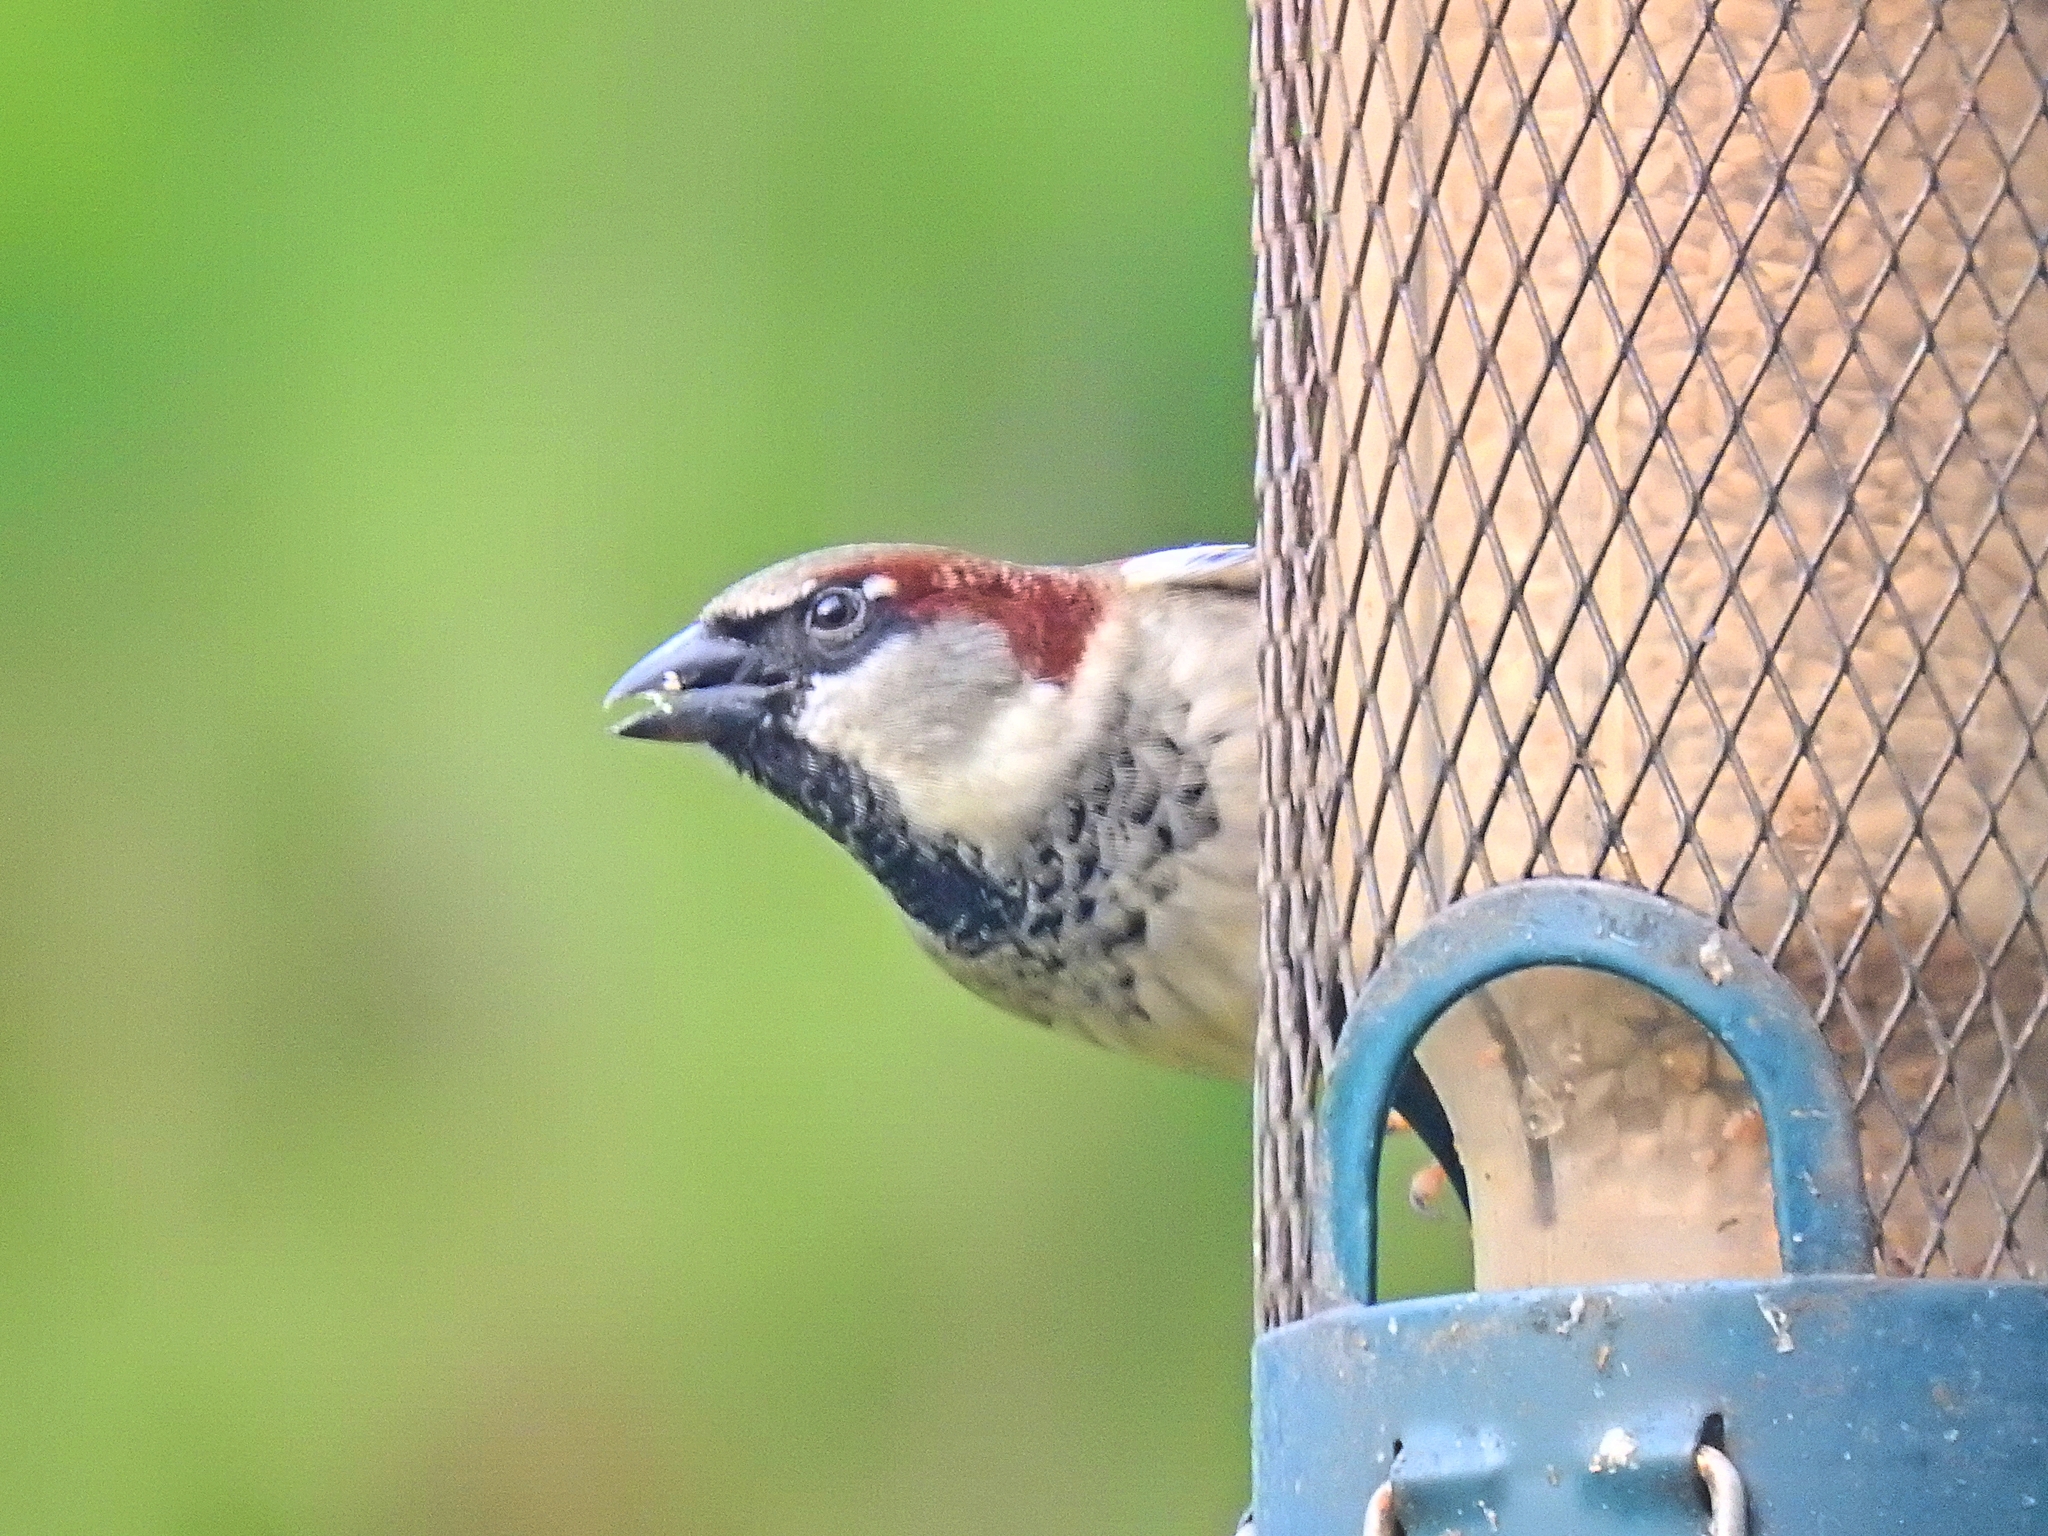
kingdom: Animalia
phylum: Chordata
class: Aves
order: Passeriformes
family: Passeridae
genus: Passer
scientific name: Passer domesticus
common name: House sparrow
